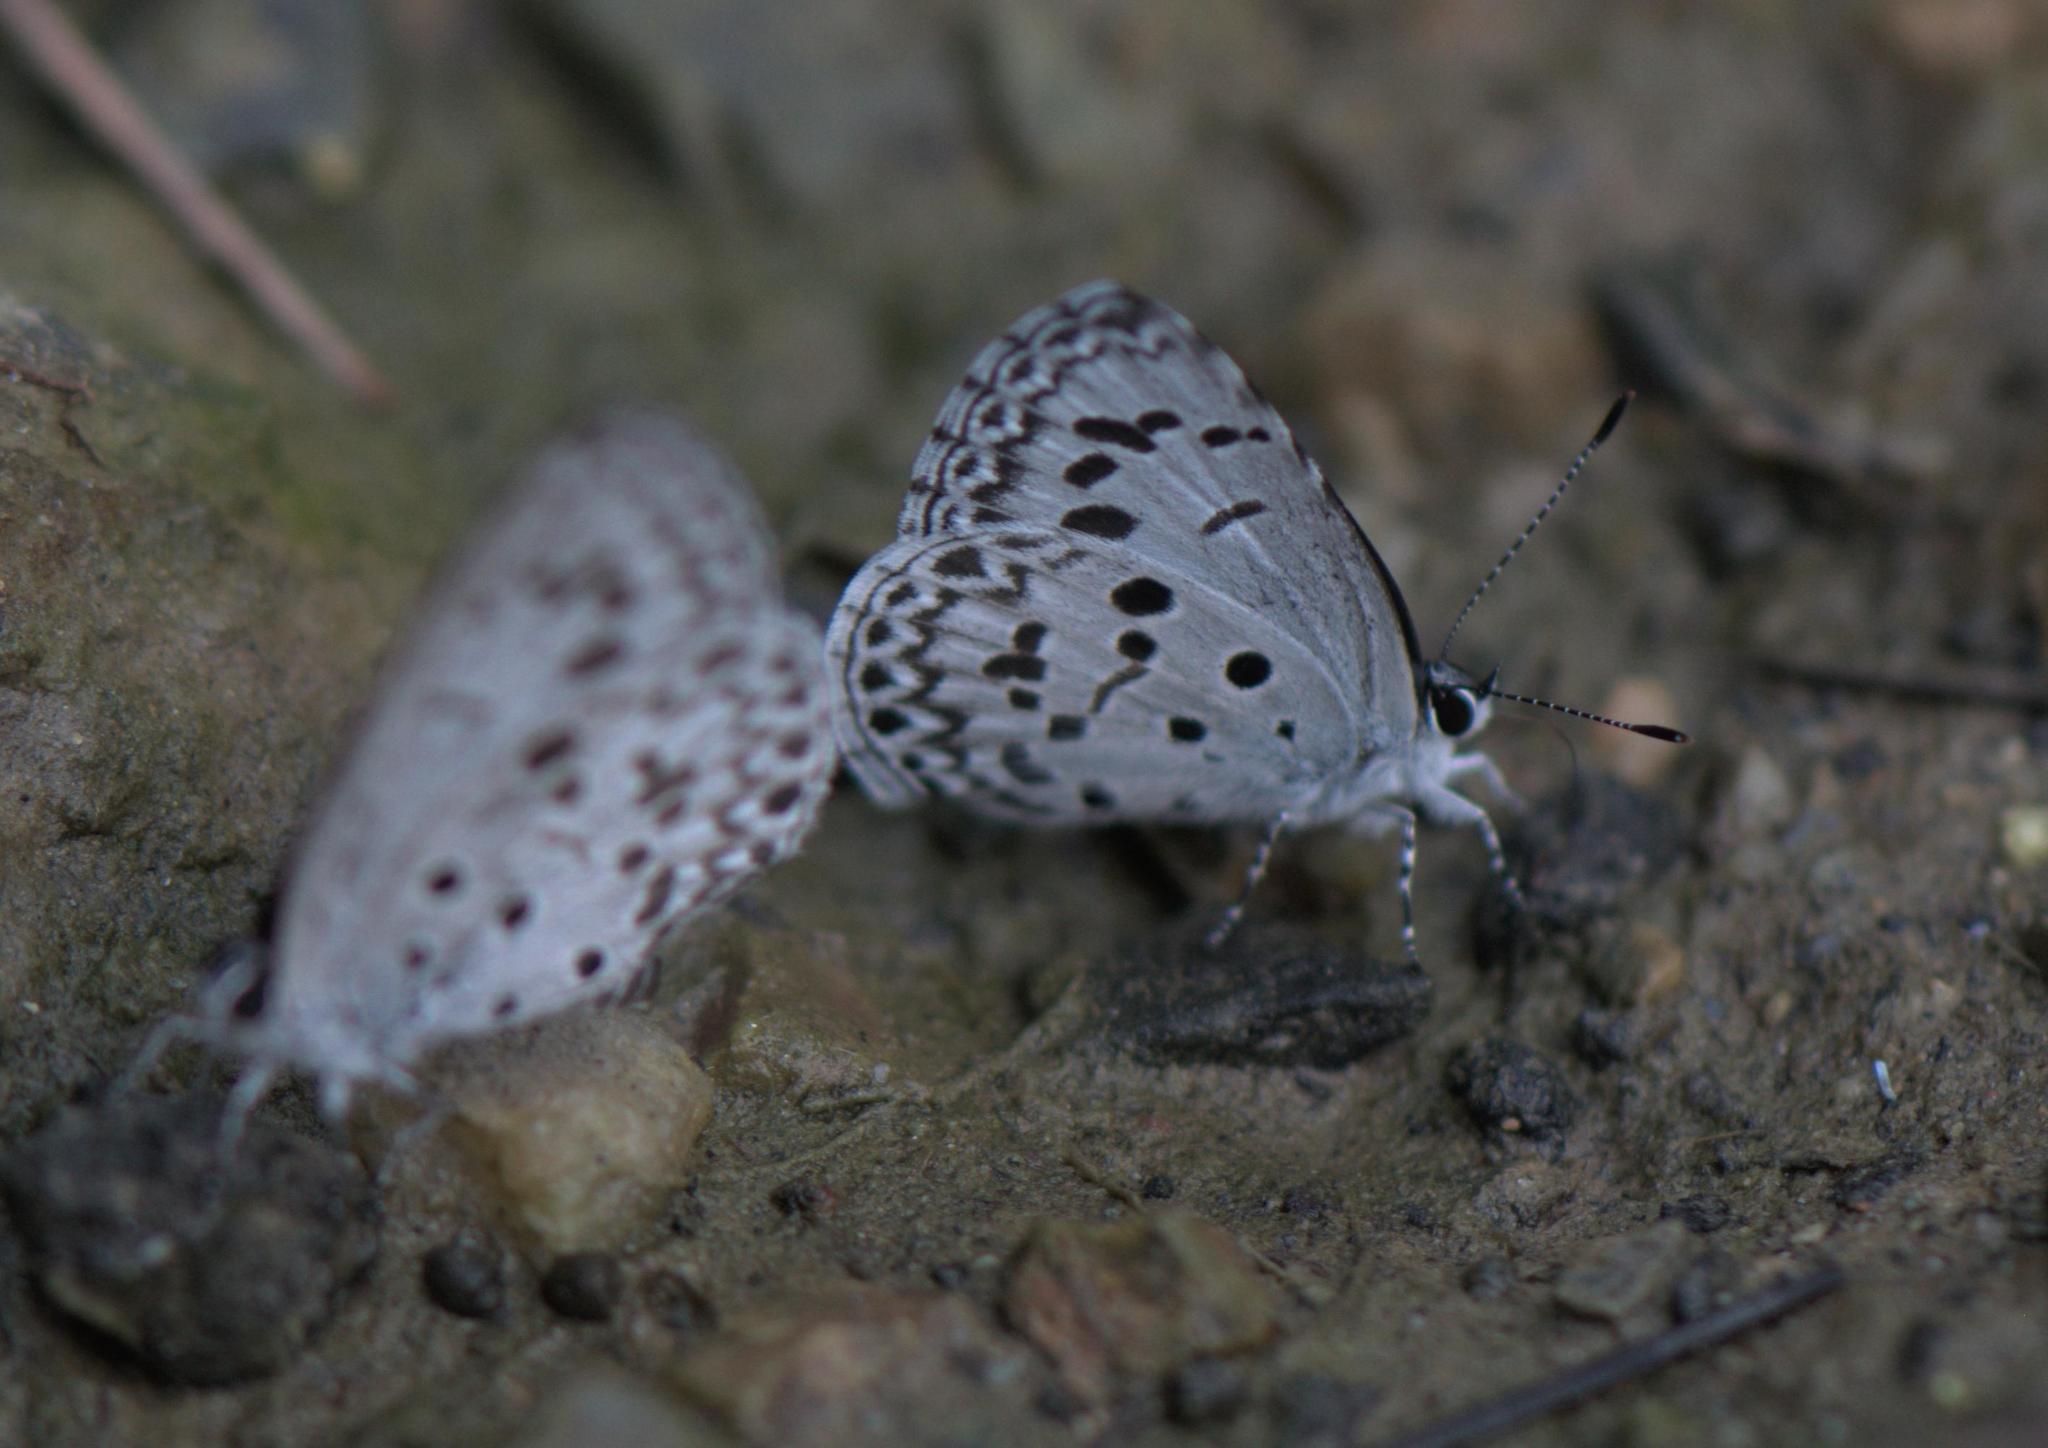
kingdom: Animalia
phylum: Arthropoda
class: Insecta
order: Lepidoptera
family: Lycaenidae
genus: Acytolepis
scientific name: Acytolepis puspa
